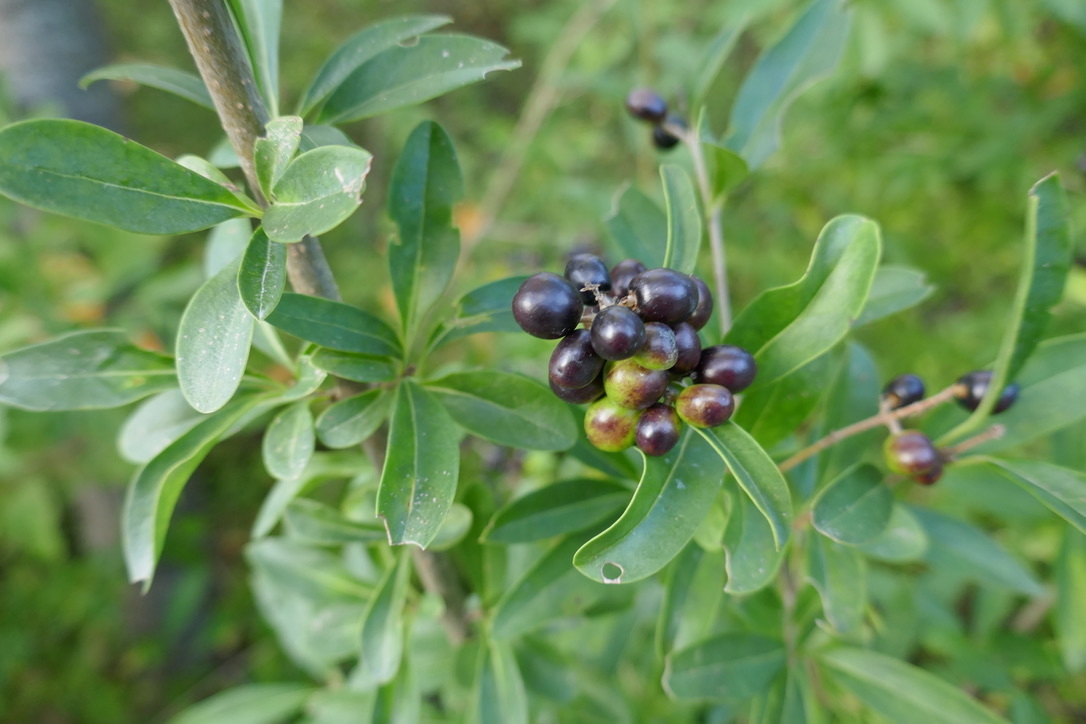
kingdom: Plantae
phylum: Tracheophyta
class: Magnoliopsida
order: Lamiales
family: Oleaceae
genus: Ligustrum
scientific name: Ligustrum vulgare
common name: Wild privet
